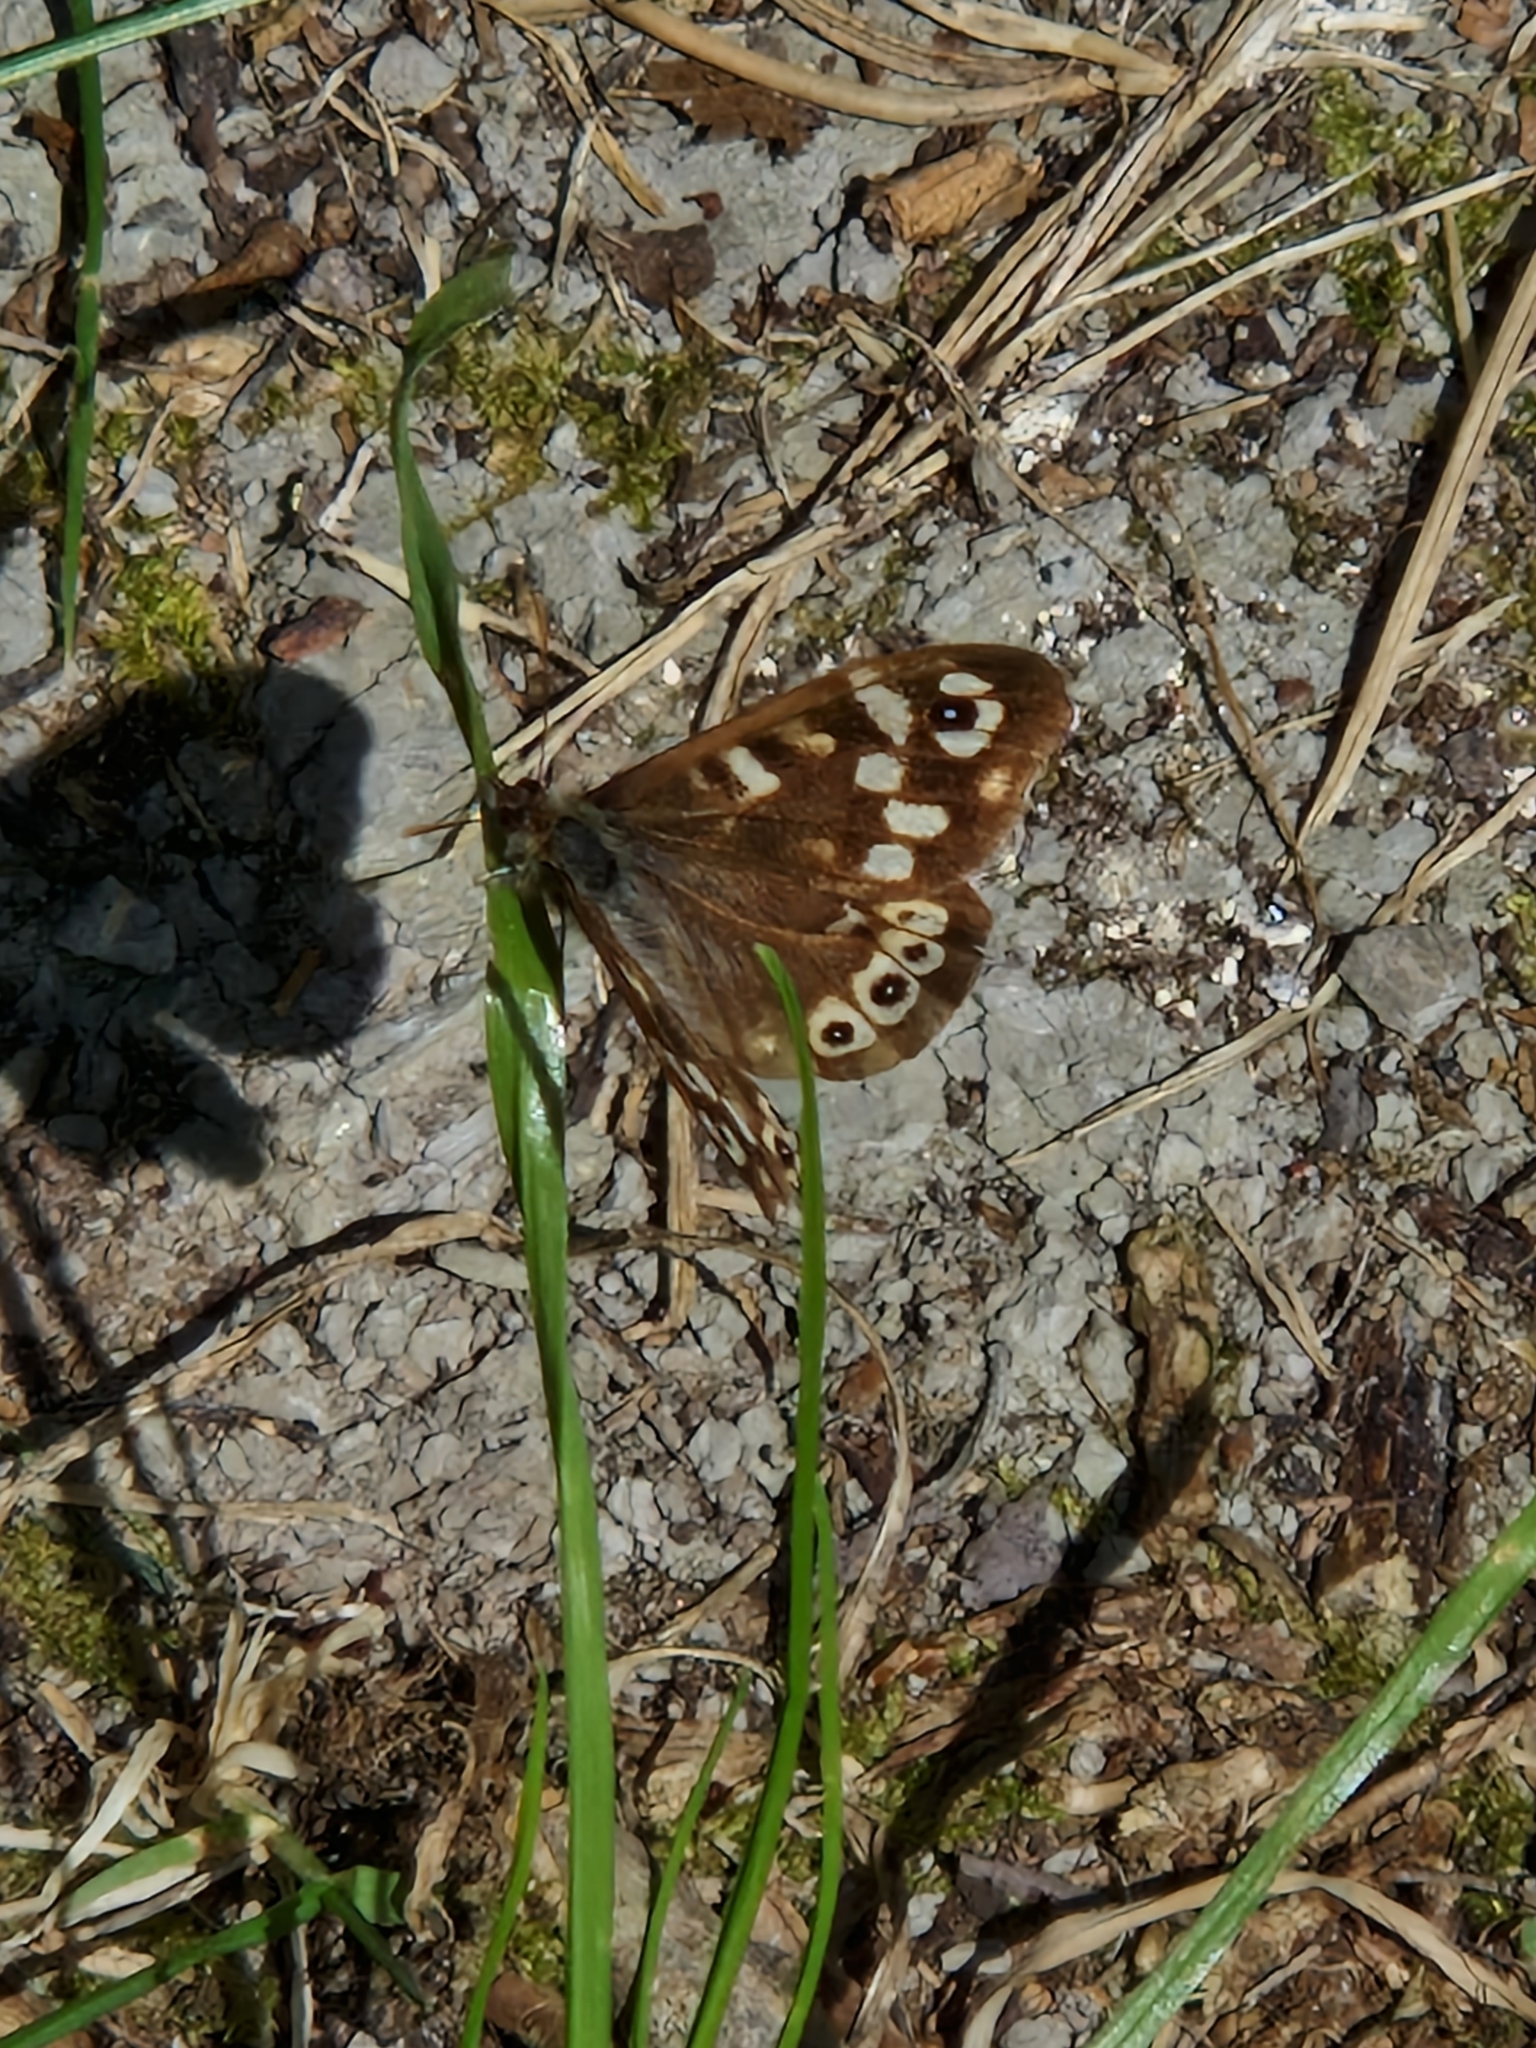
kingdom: Animalia
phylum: Arthropoda
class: Insecta
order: Lepidoptera
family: Nymphalidae
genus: Pararge
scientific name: Pararge aegeria
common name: Speckled wood
